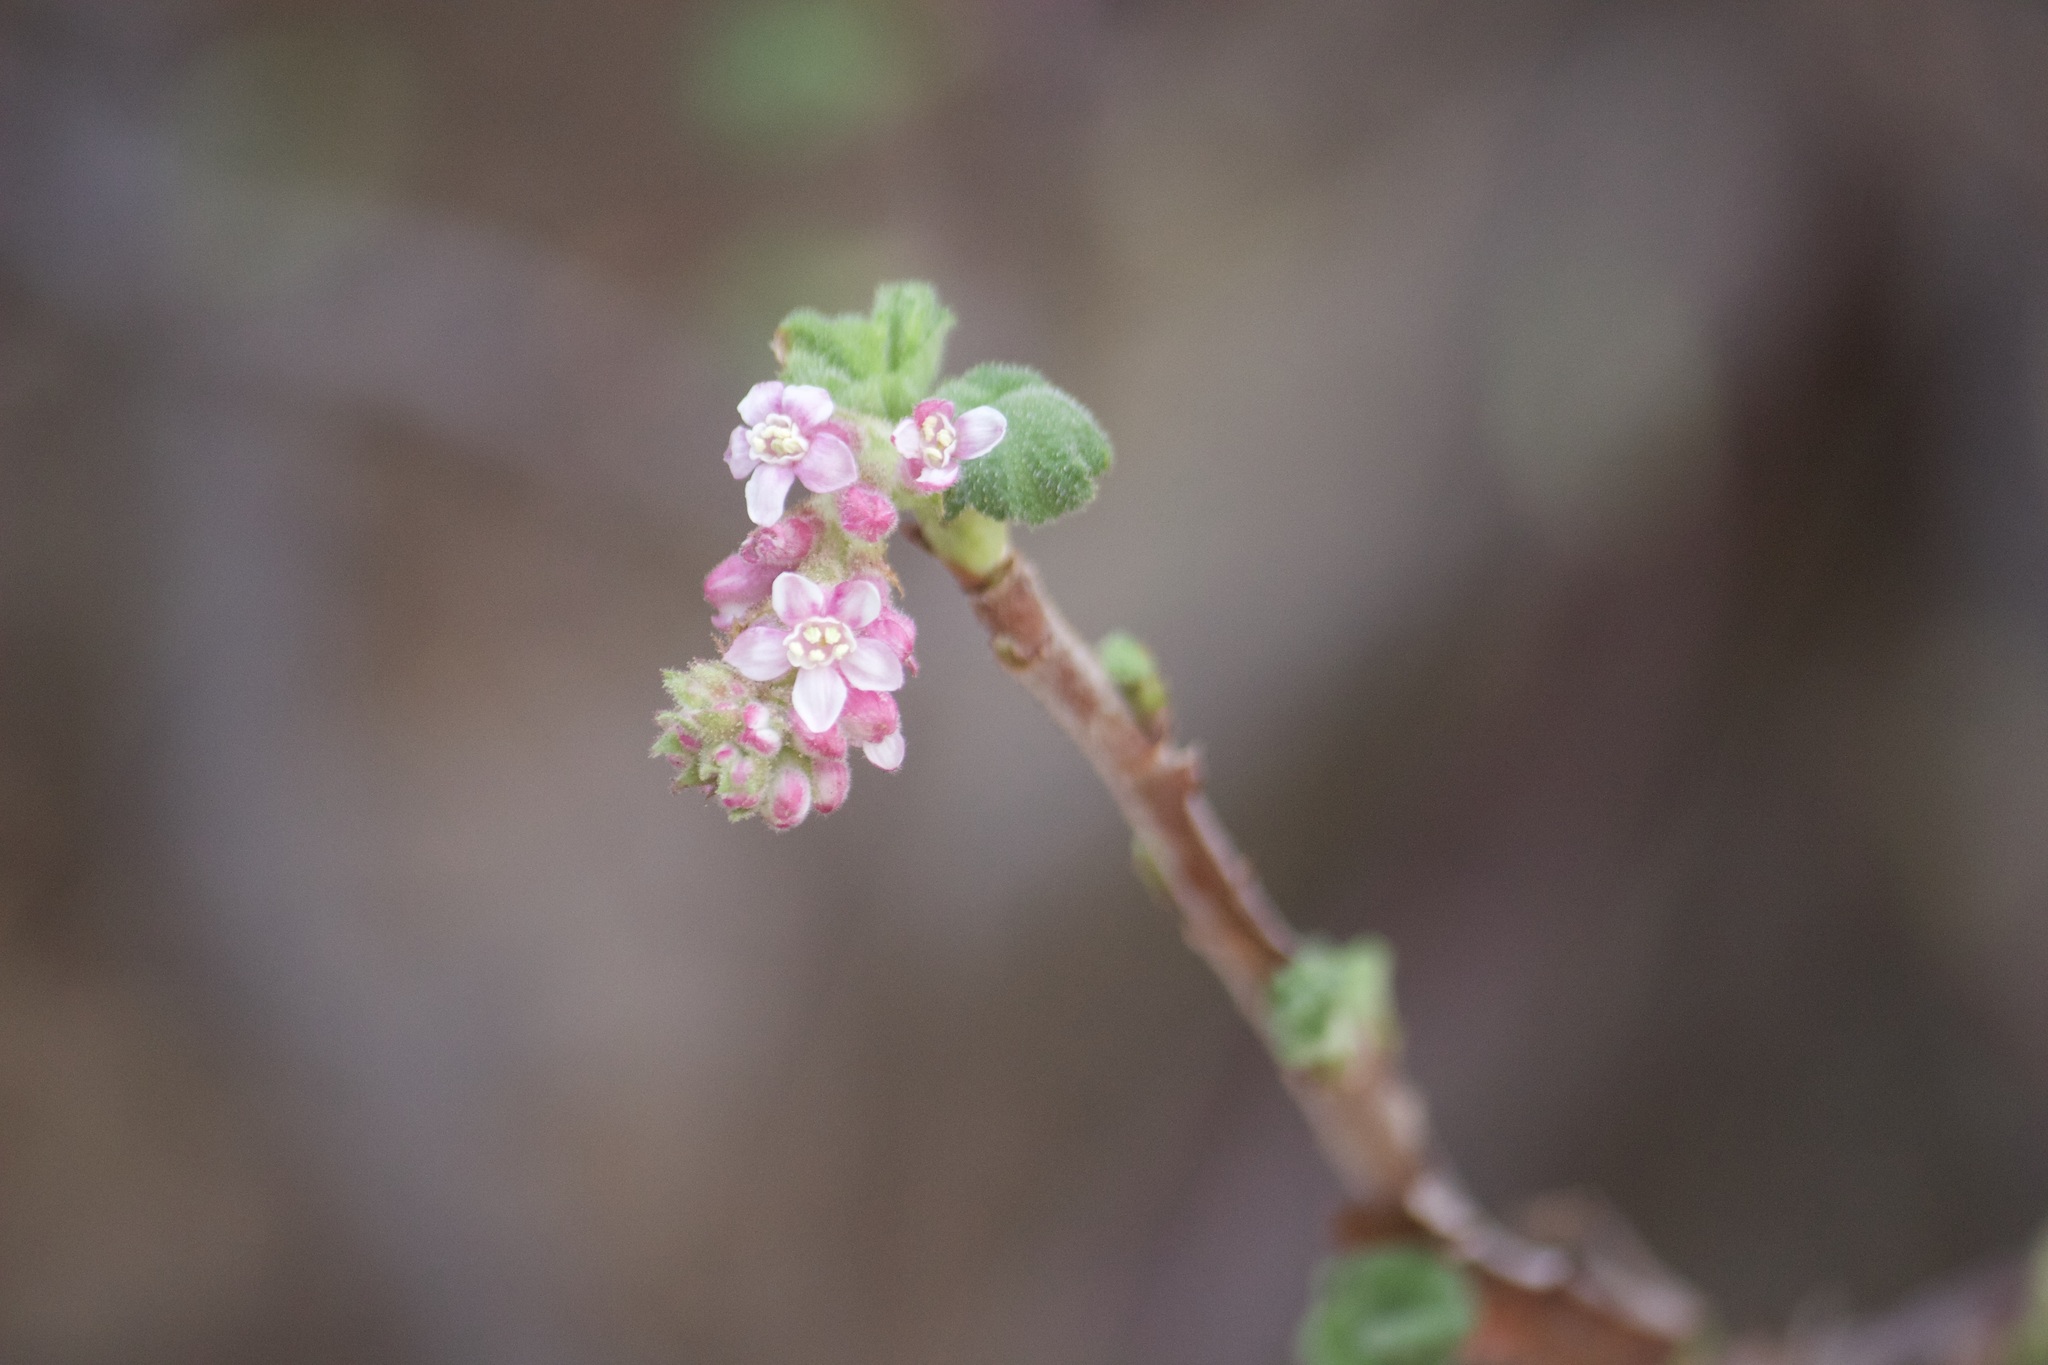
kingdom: Plantae
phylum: Tracheophyta
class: Magnoliopsida
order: Saxifragales
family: Grossulariaceae
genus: Ribes
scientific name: Ribes malvaceum
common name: Chaparral currant
